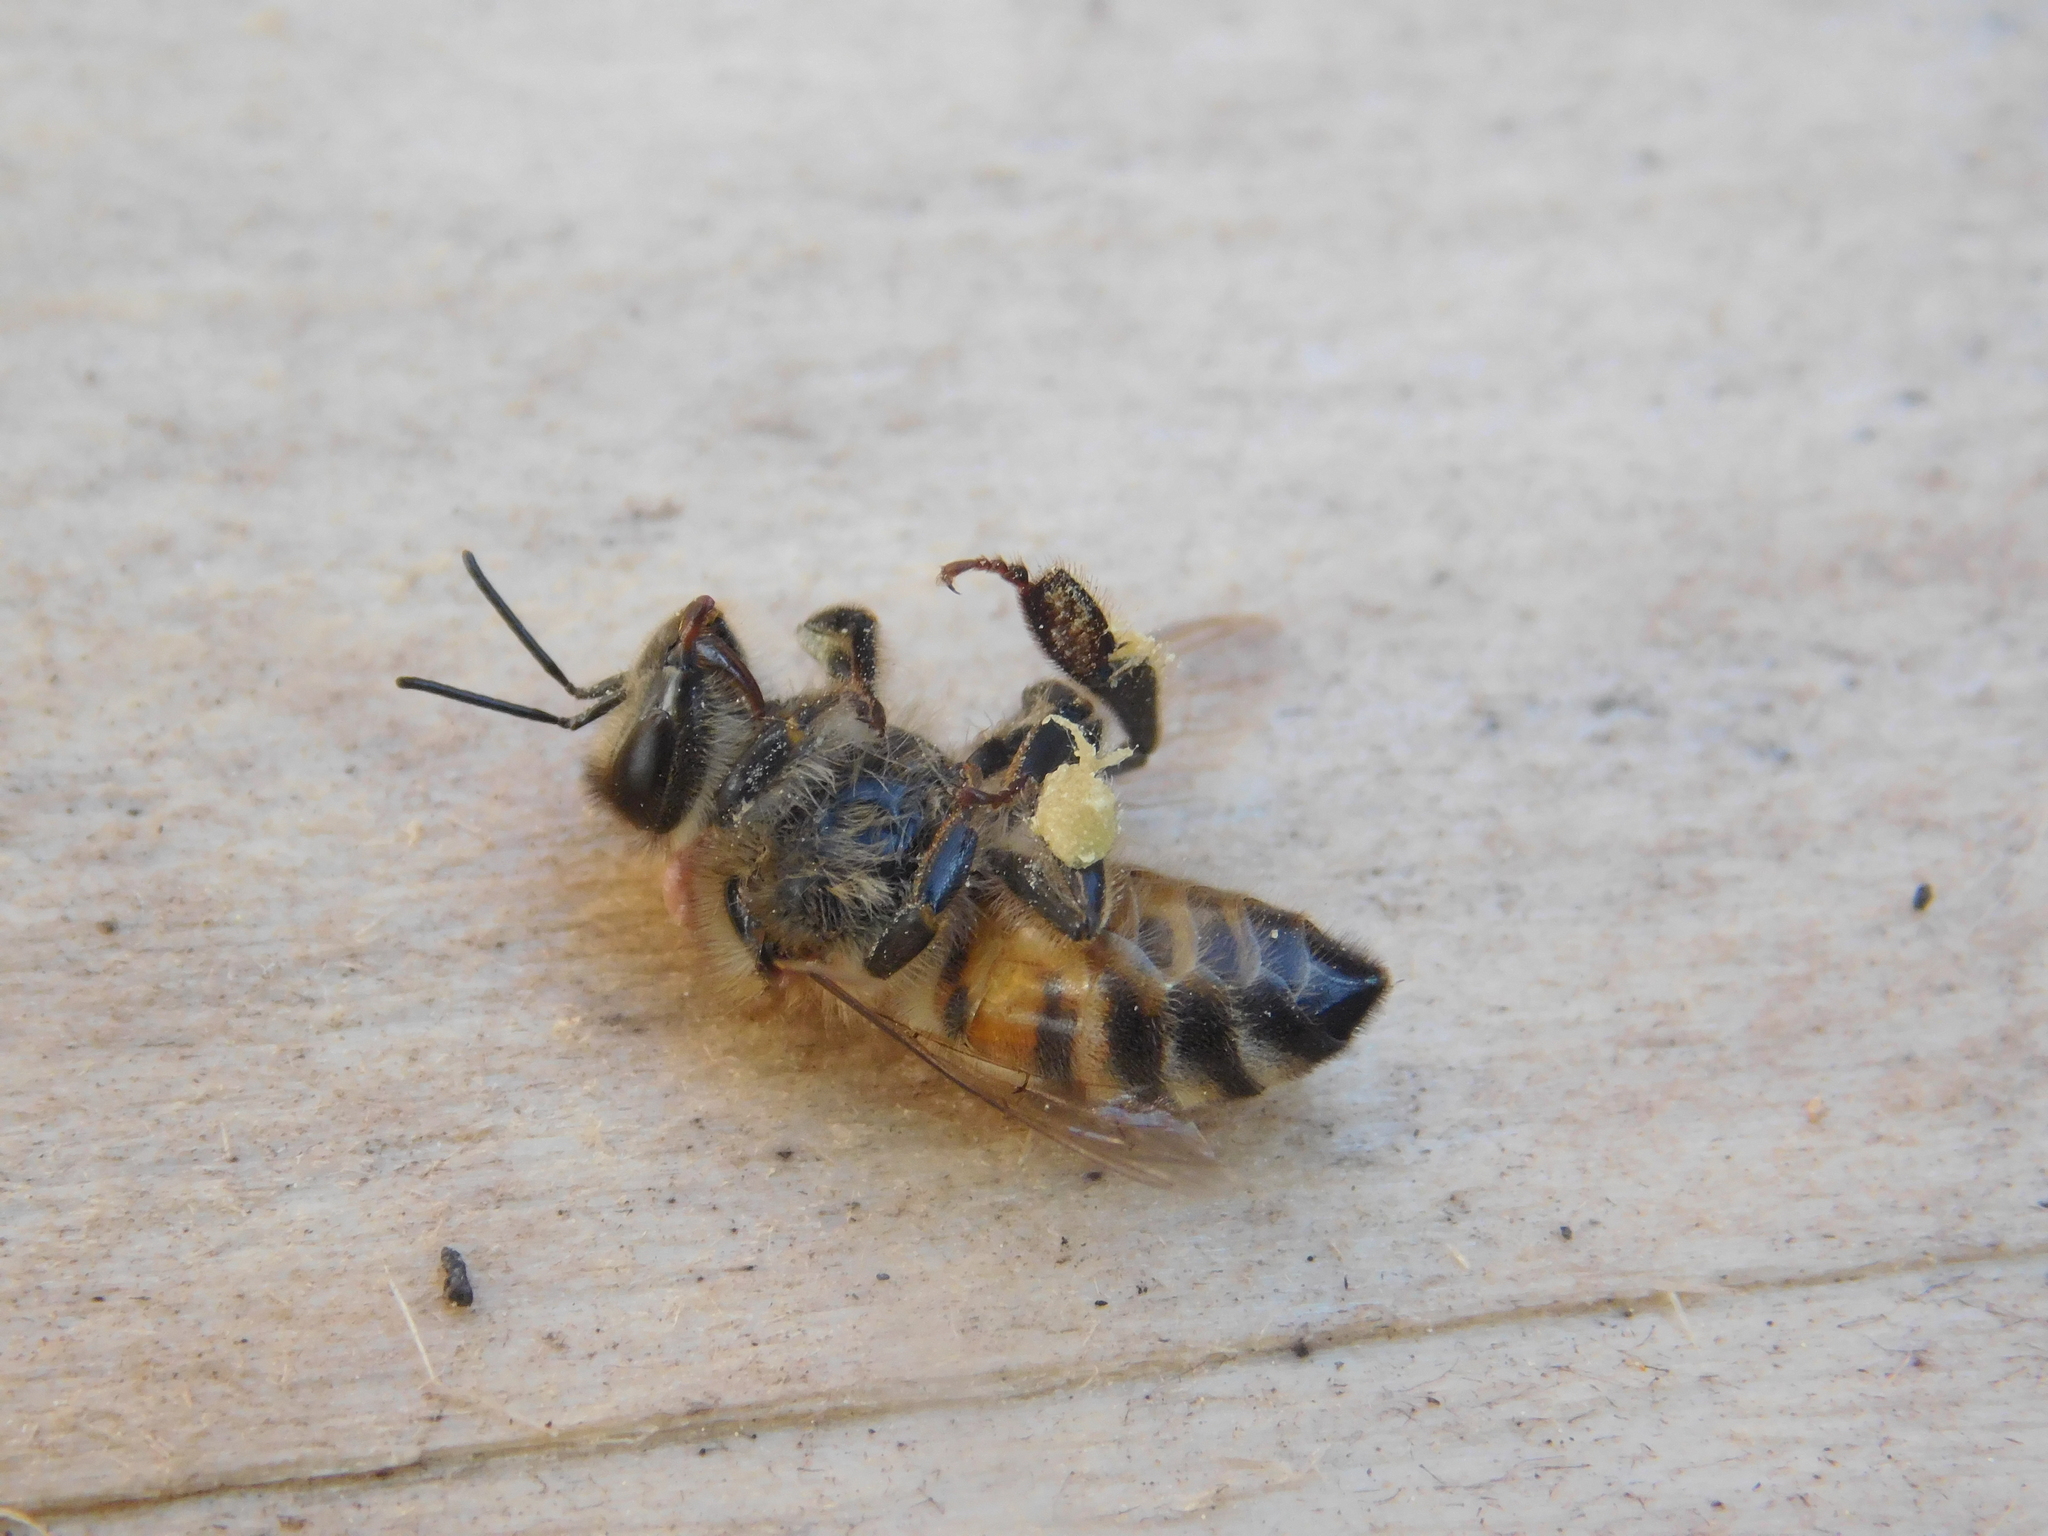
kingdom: Animalia
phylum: Arthropoda
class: Insecta
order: Hymenoptera
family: Apidae
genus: Apis
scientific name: Apis mellifera
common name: Honey bee
